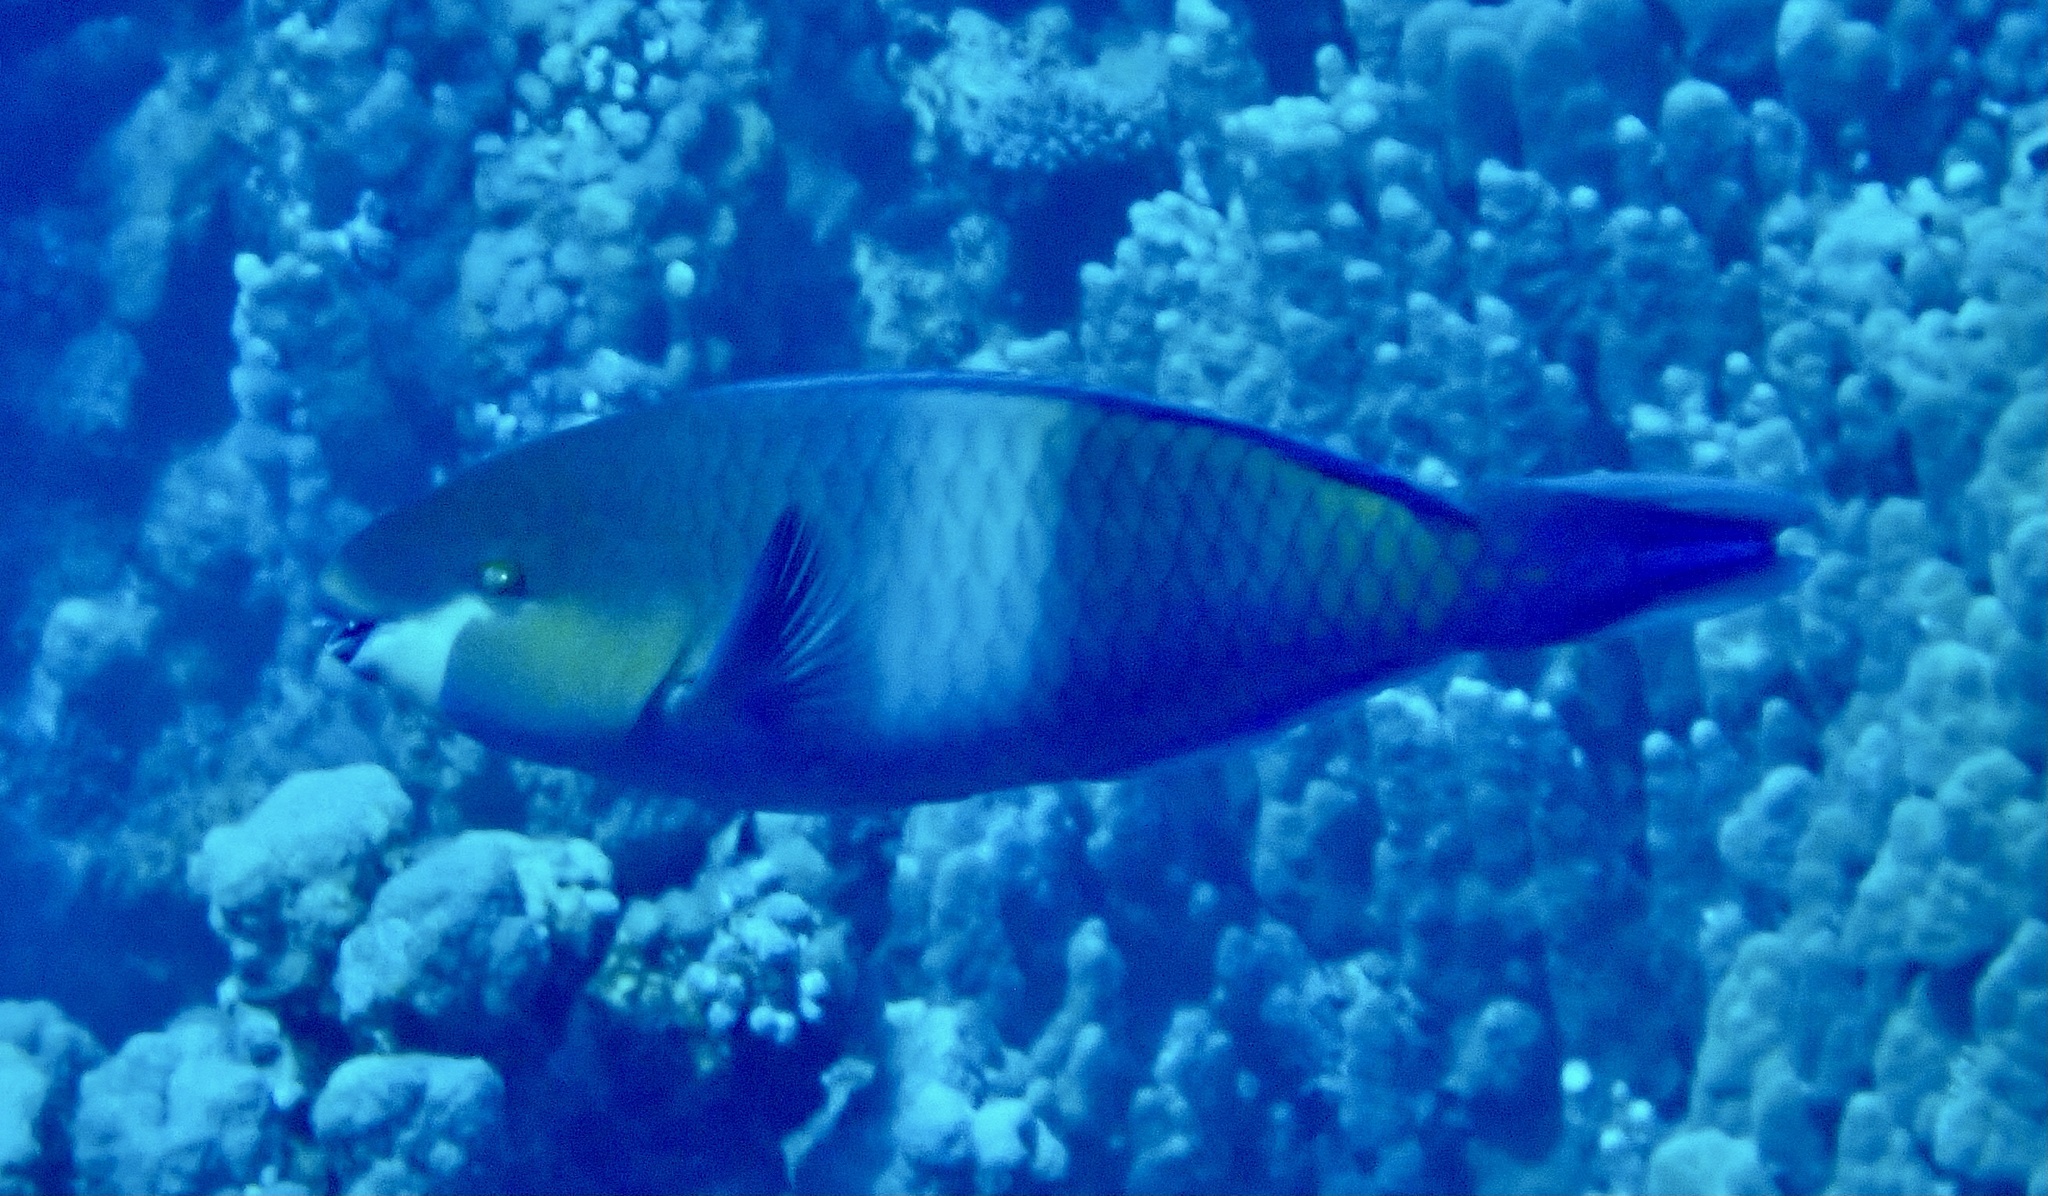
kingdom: Animalia
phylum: Chordata
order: Perciformes
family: Scaridae
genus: Scarus
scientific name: Scarus ferrugineus
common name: Rusty parrotfish
